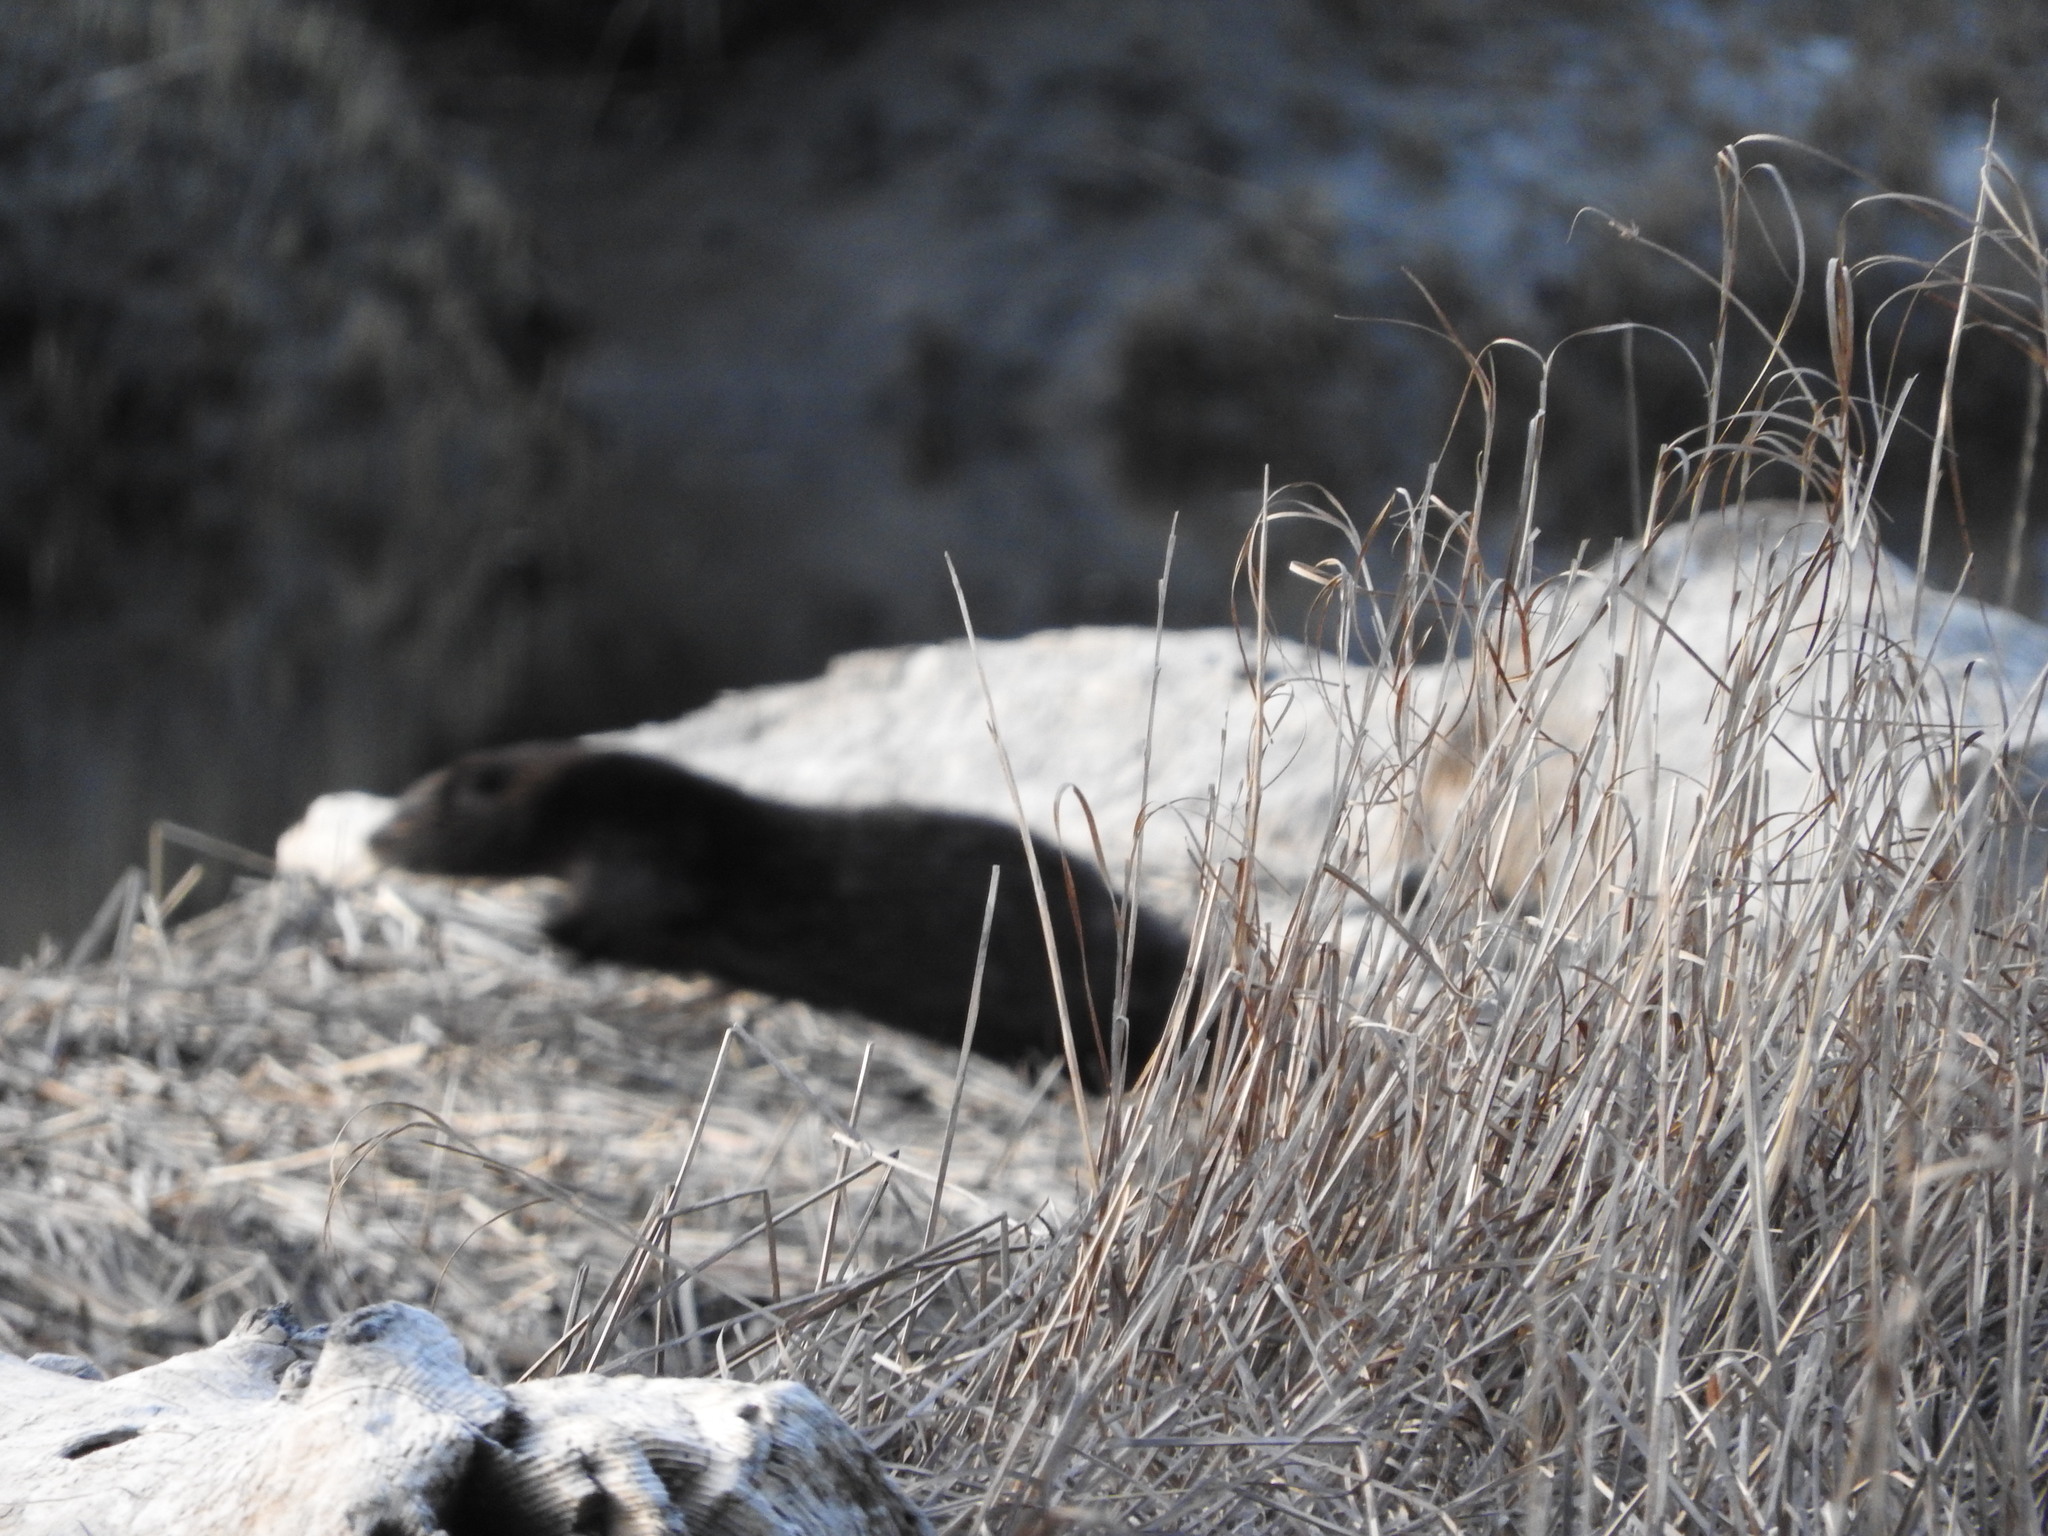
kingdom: Animalia
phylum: Chordata
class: Mammalia
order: Carnivora
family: Mustelidae
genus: Lontra
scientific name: Lontra canadensis
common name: North american river otter
